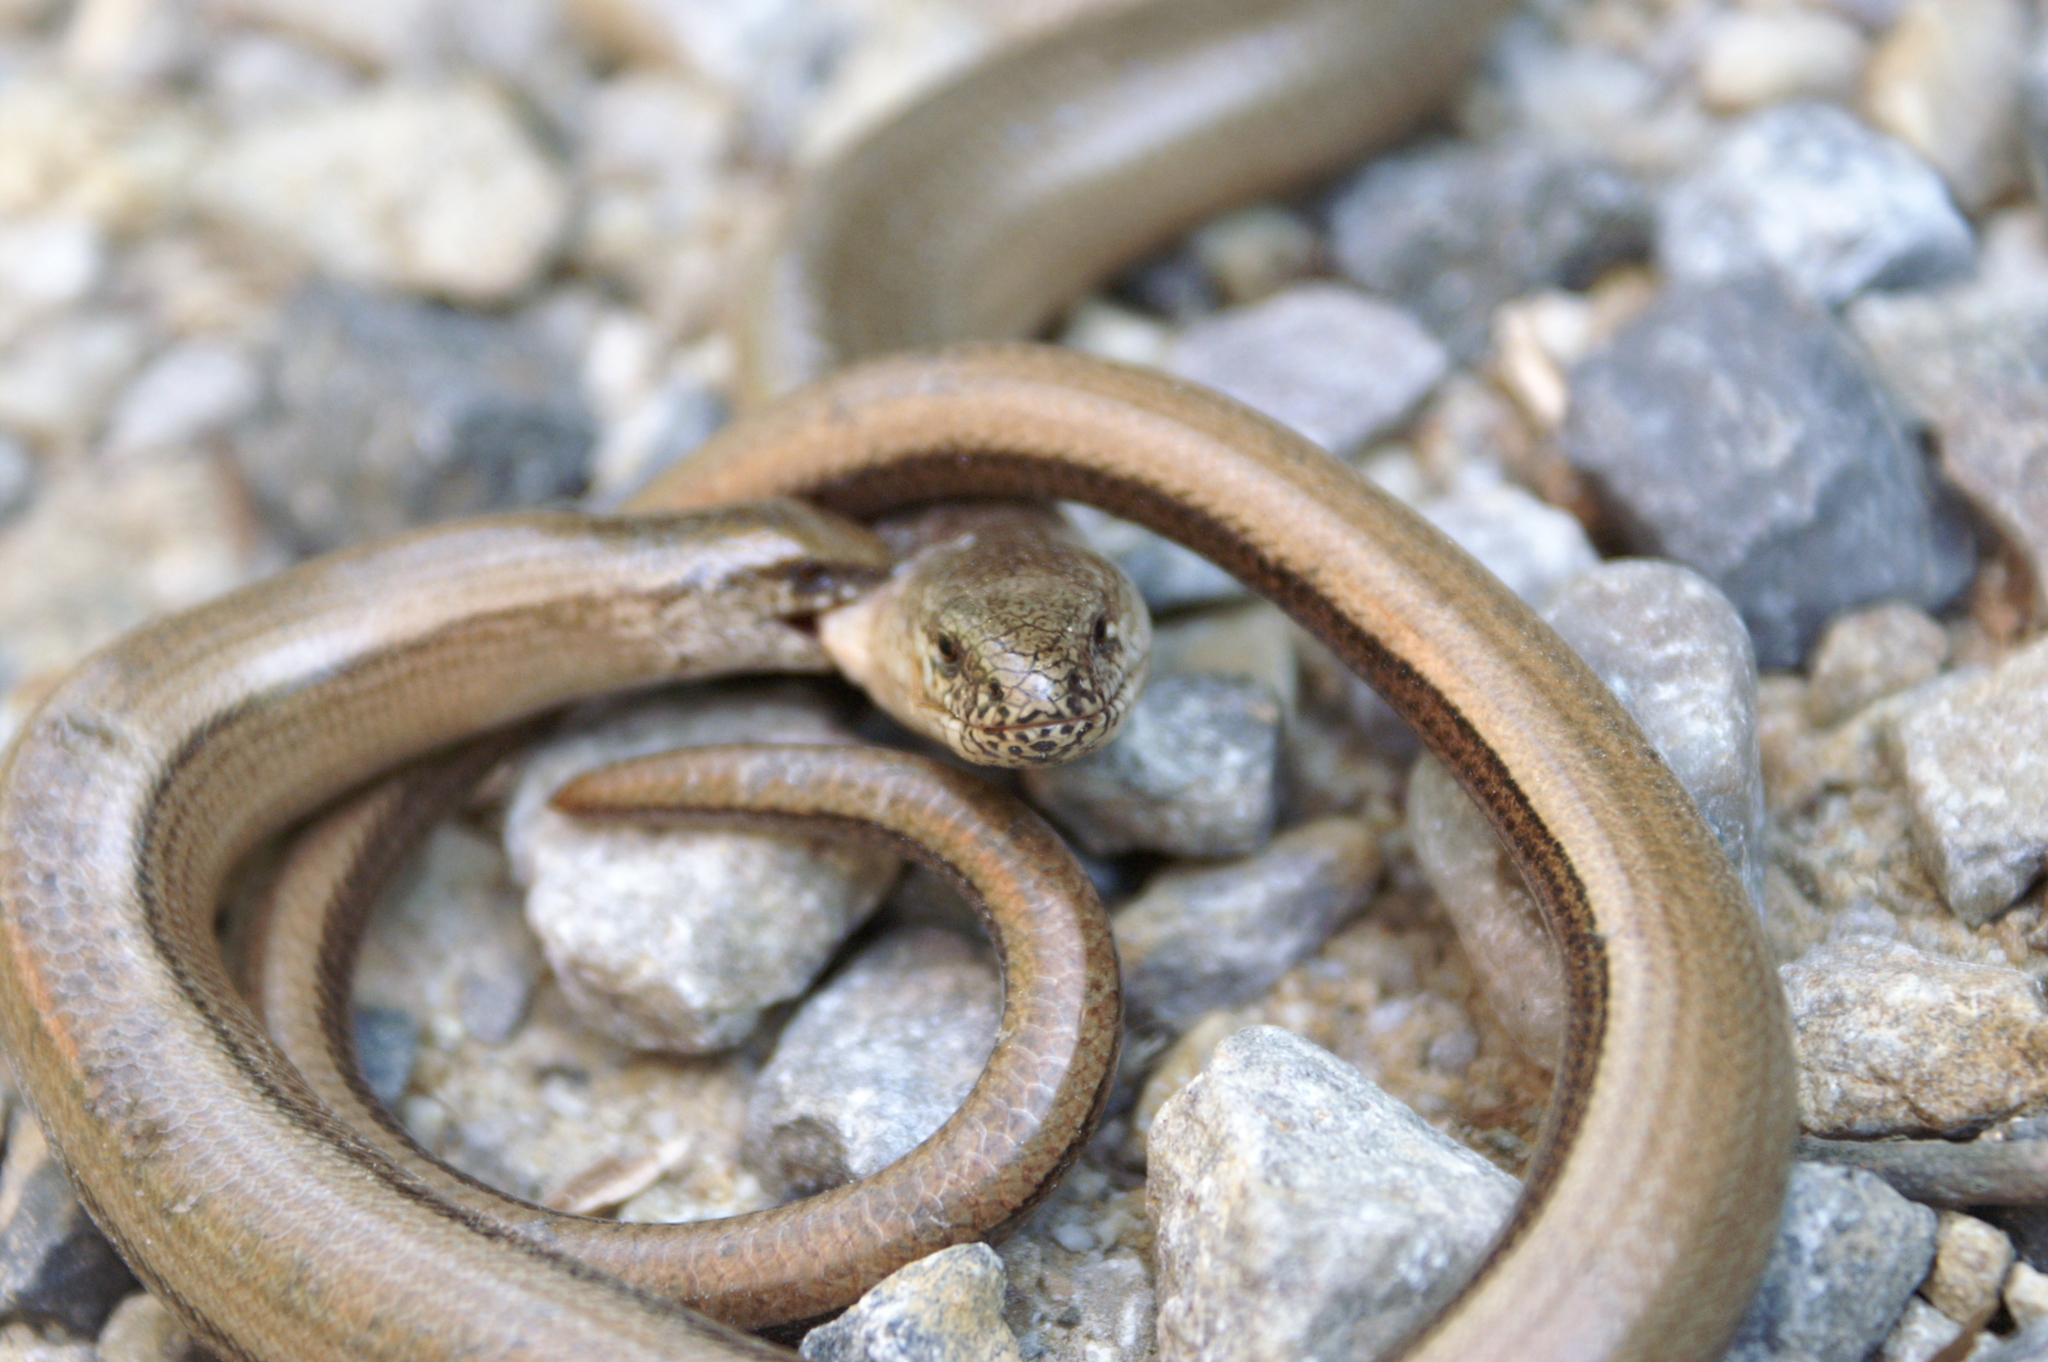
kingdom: Animalia
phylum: Chordata
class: Squamata
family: Anguidae
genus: Anguis
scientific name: Anguis fragilis
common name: Slow worm
